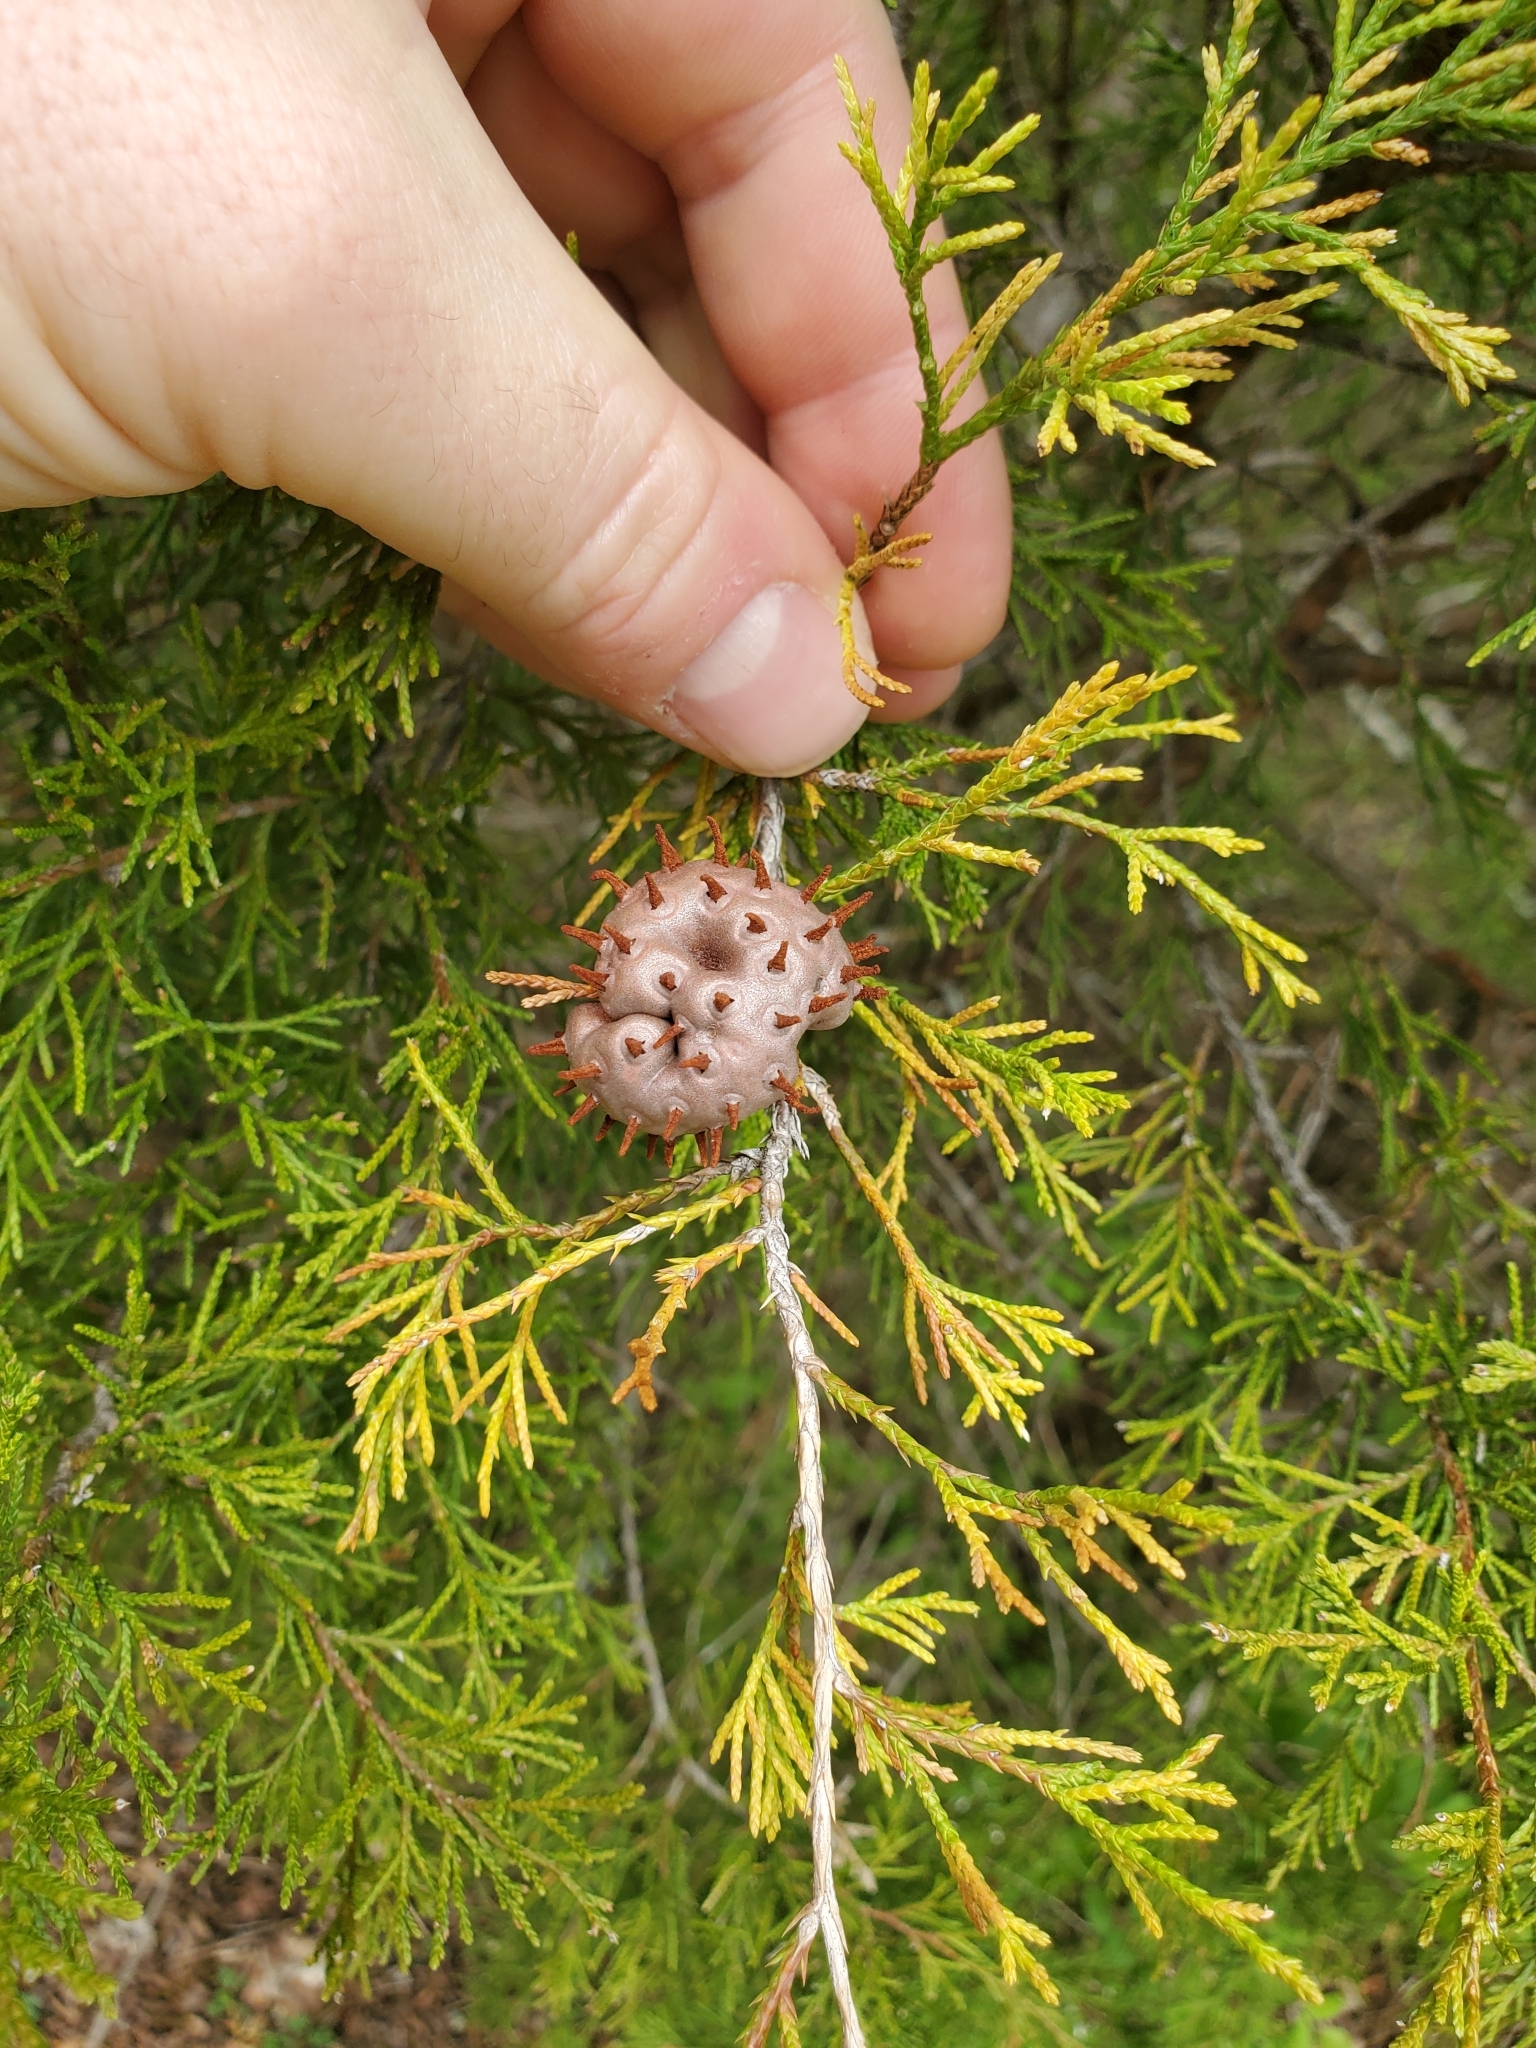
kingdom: Fungi
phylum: Basidiomycota
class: Pucciniomycetes
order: Pucciniales
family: Gymnosporangiaceae
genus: Gymnosporangium
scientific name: Gymnosporangium juniperi-virginianae
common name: Juniper-apple rust
